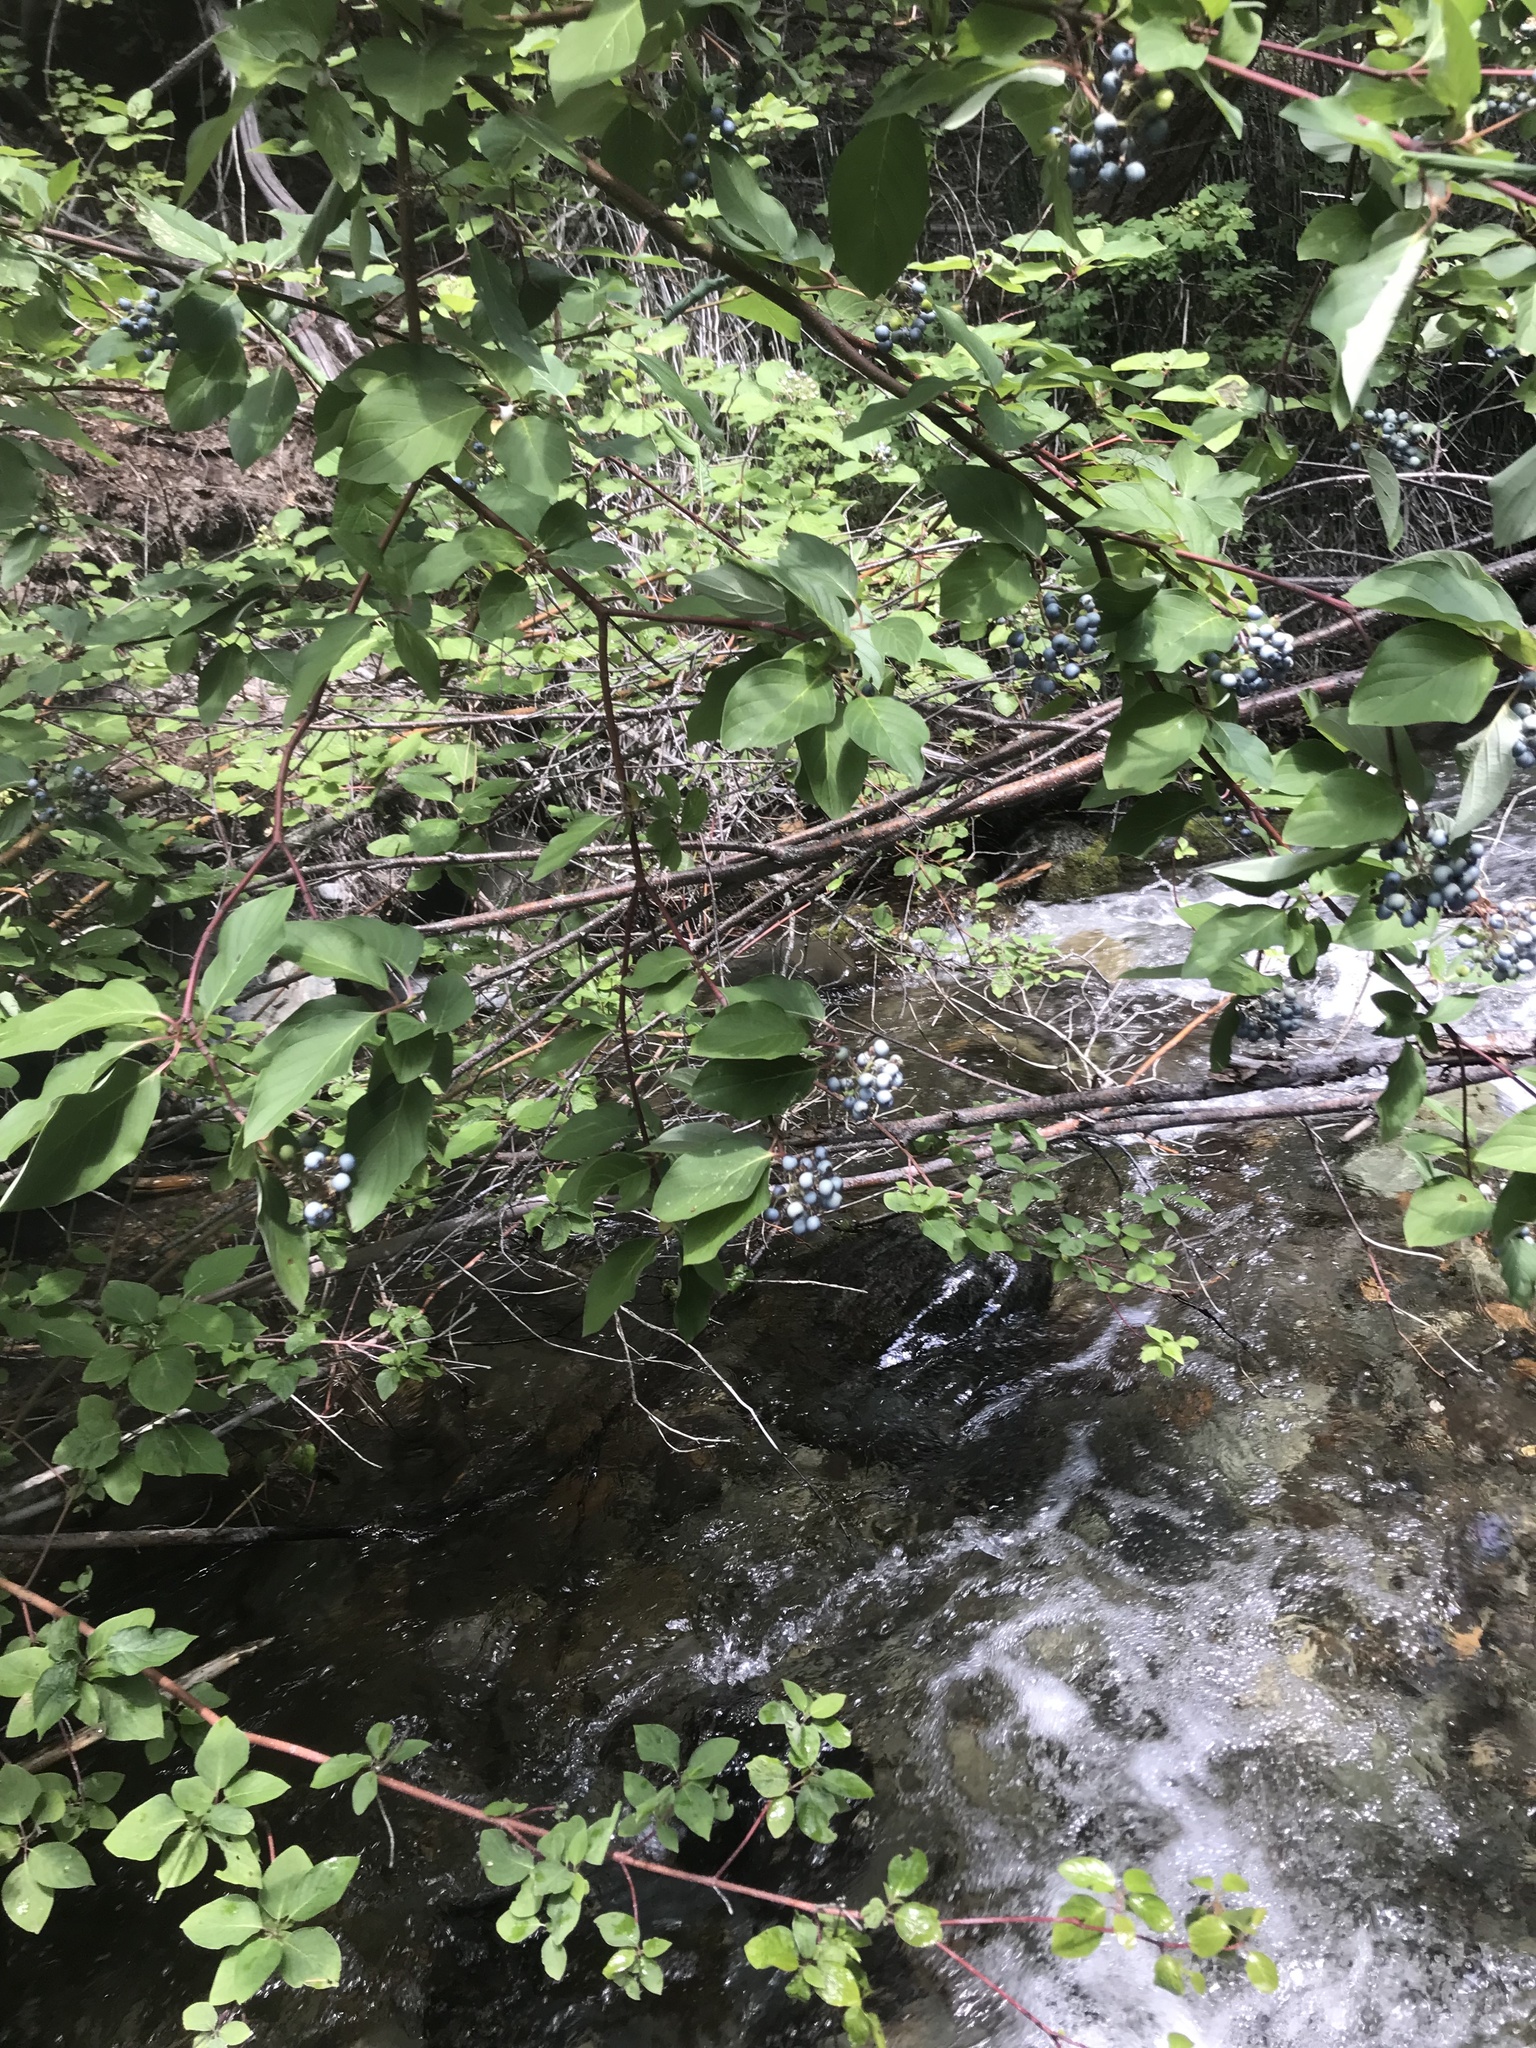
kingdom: Plantae
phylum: Tracheophyta
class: Magnoliopsida
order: Cornales
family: Cornaceae
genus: Cornus
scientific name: Cornus sericea
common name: Red-osier dogwood
